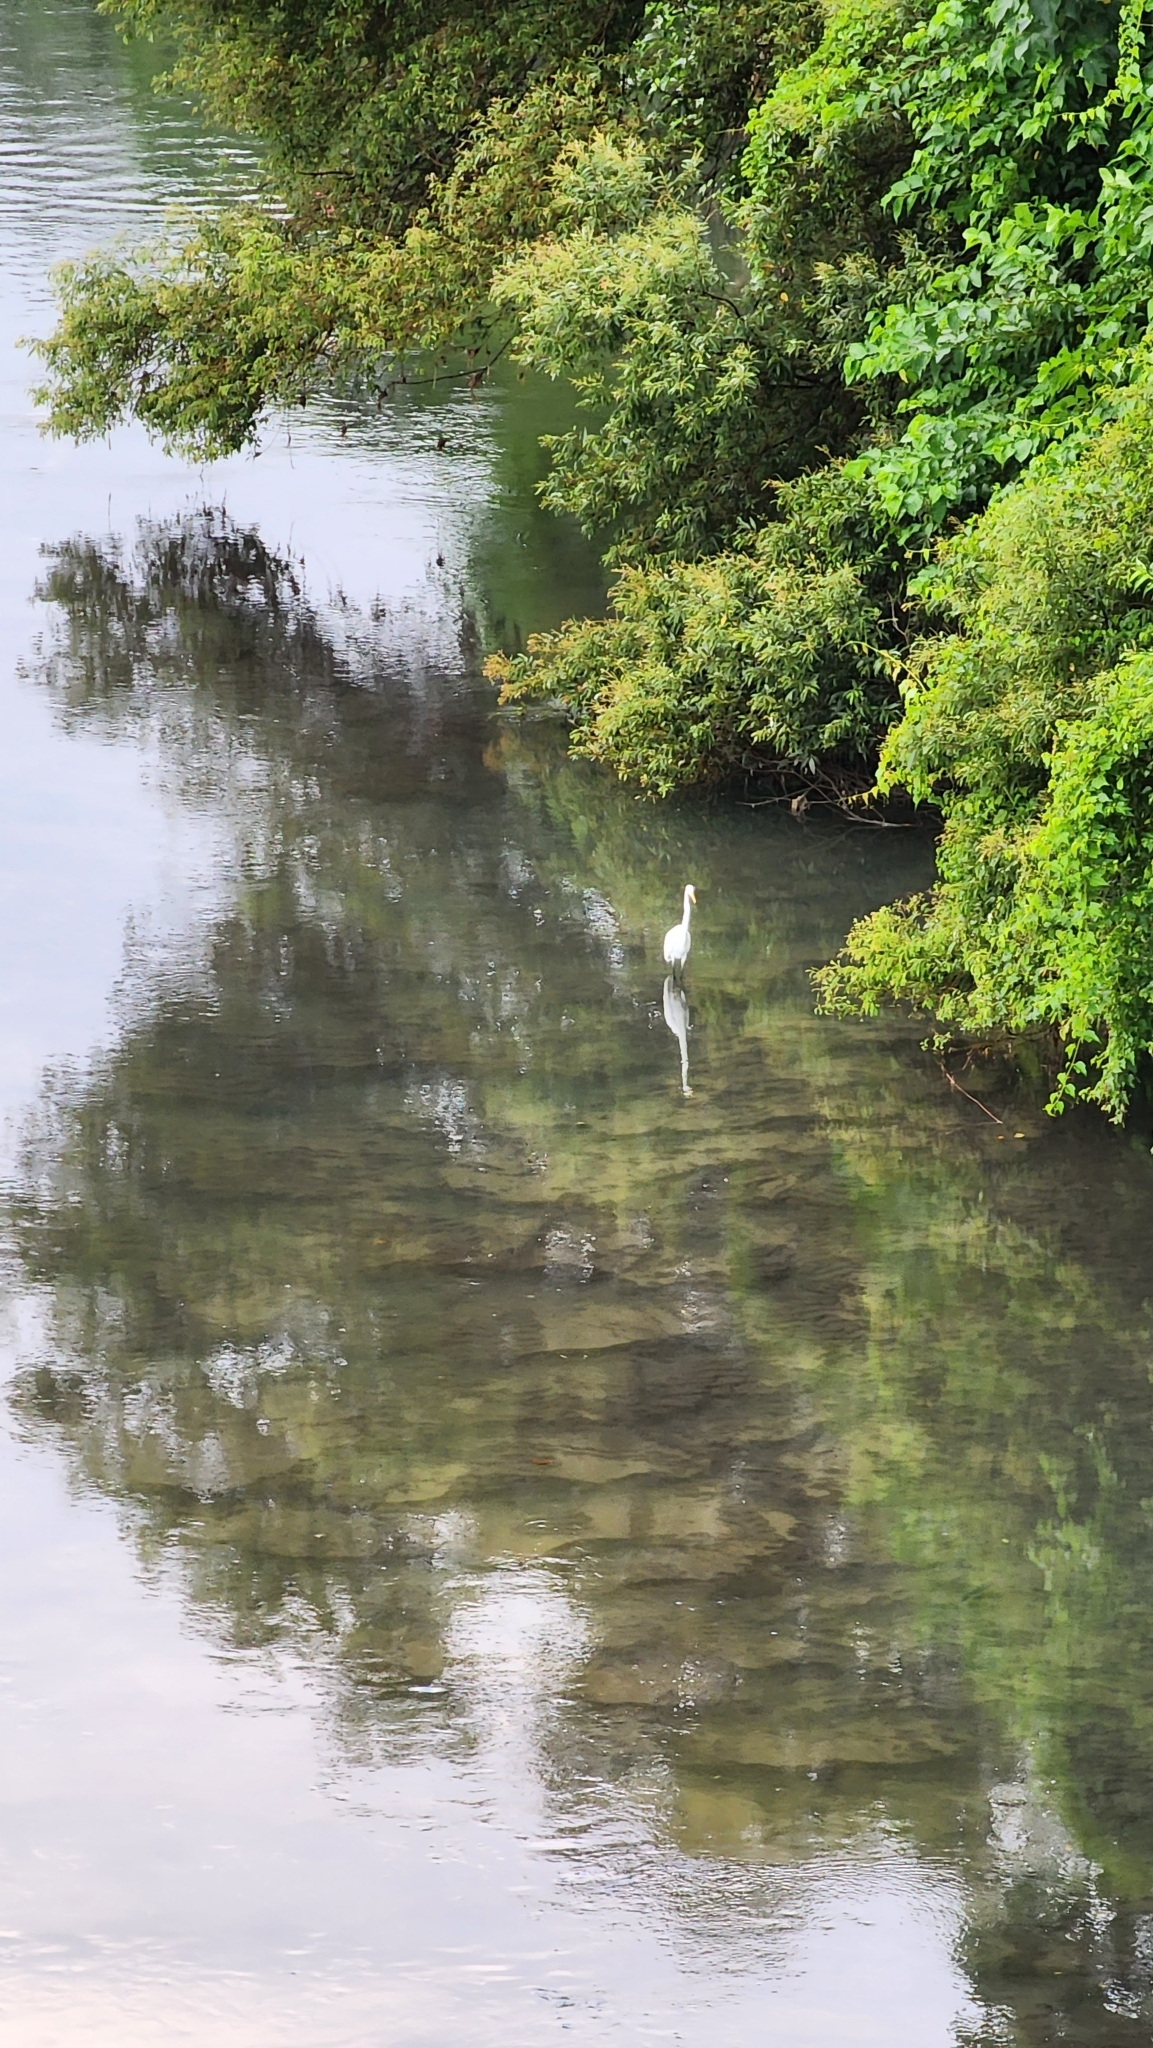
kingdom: Animalia
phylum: Chordata
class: Aves
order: Pelecaniformes
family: Ardeidae
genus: Ardea
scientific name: Ardea alba
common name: Great egret
